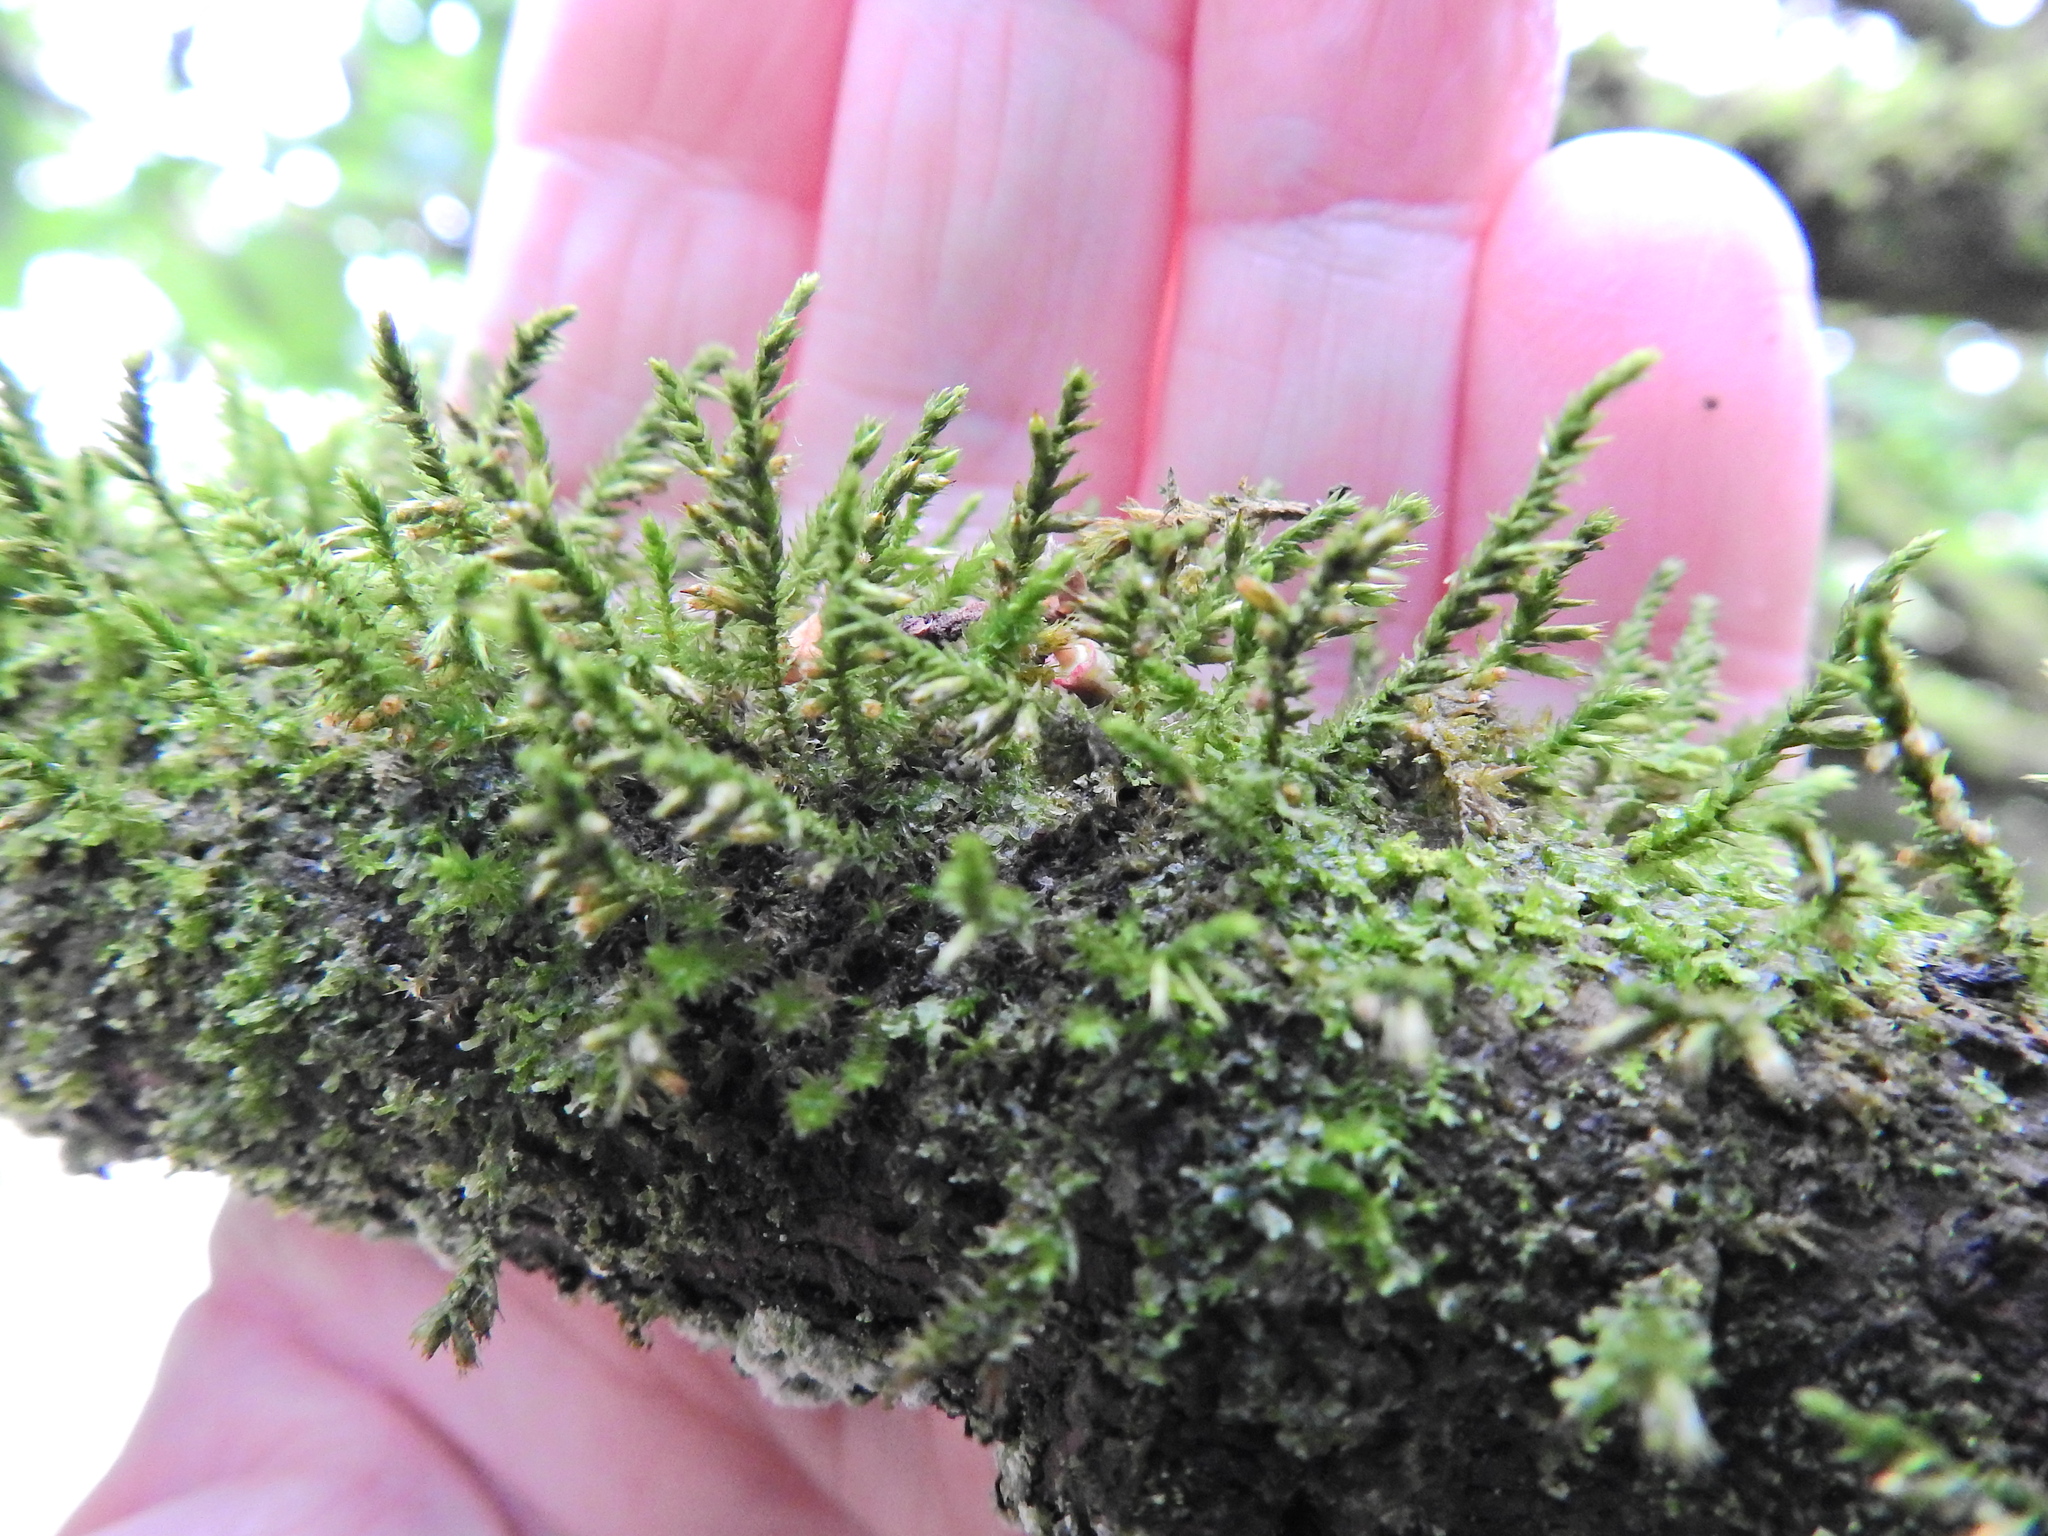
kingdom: Plantae
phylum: Bryophyta
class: Bryopsida
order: Hypnales
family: Cryphaeaceae
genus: Cryphaea
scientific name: Cryphaea heteromalla
